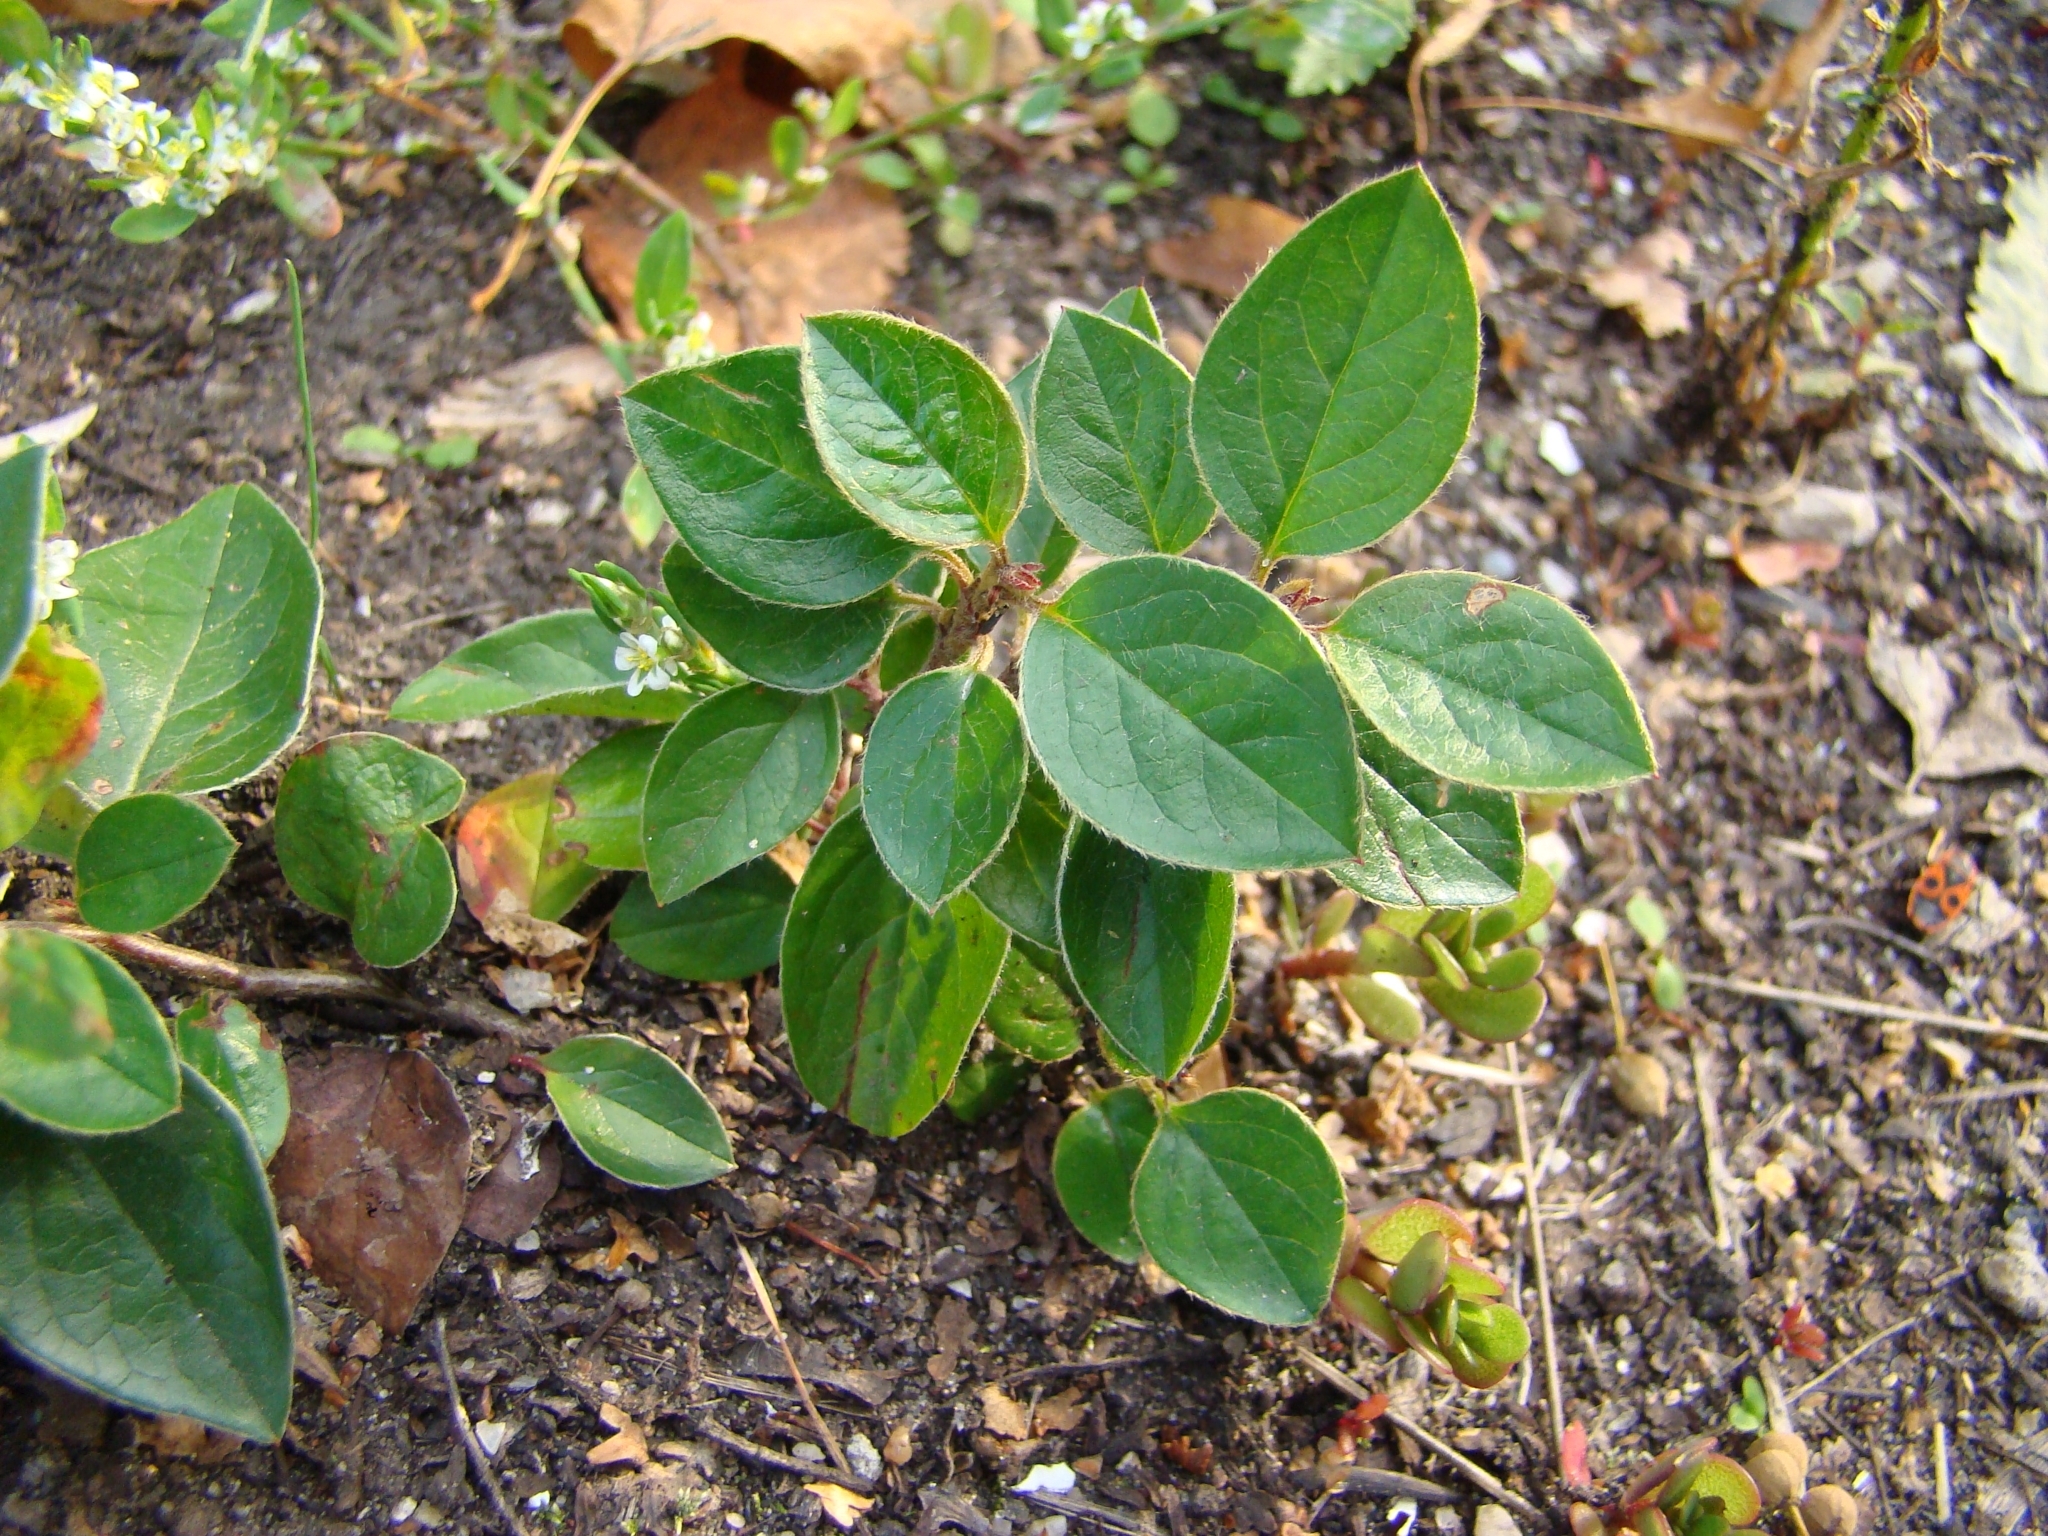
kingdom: Plantae
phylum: Tracheophyta
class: Magnoliopsida
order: Rosales
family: Rosaceae
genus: Cotoneaster
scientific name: Cotoneaster acutifolius
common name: Peking cotoneaster
